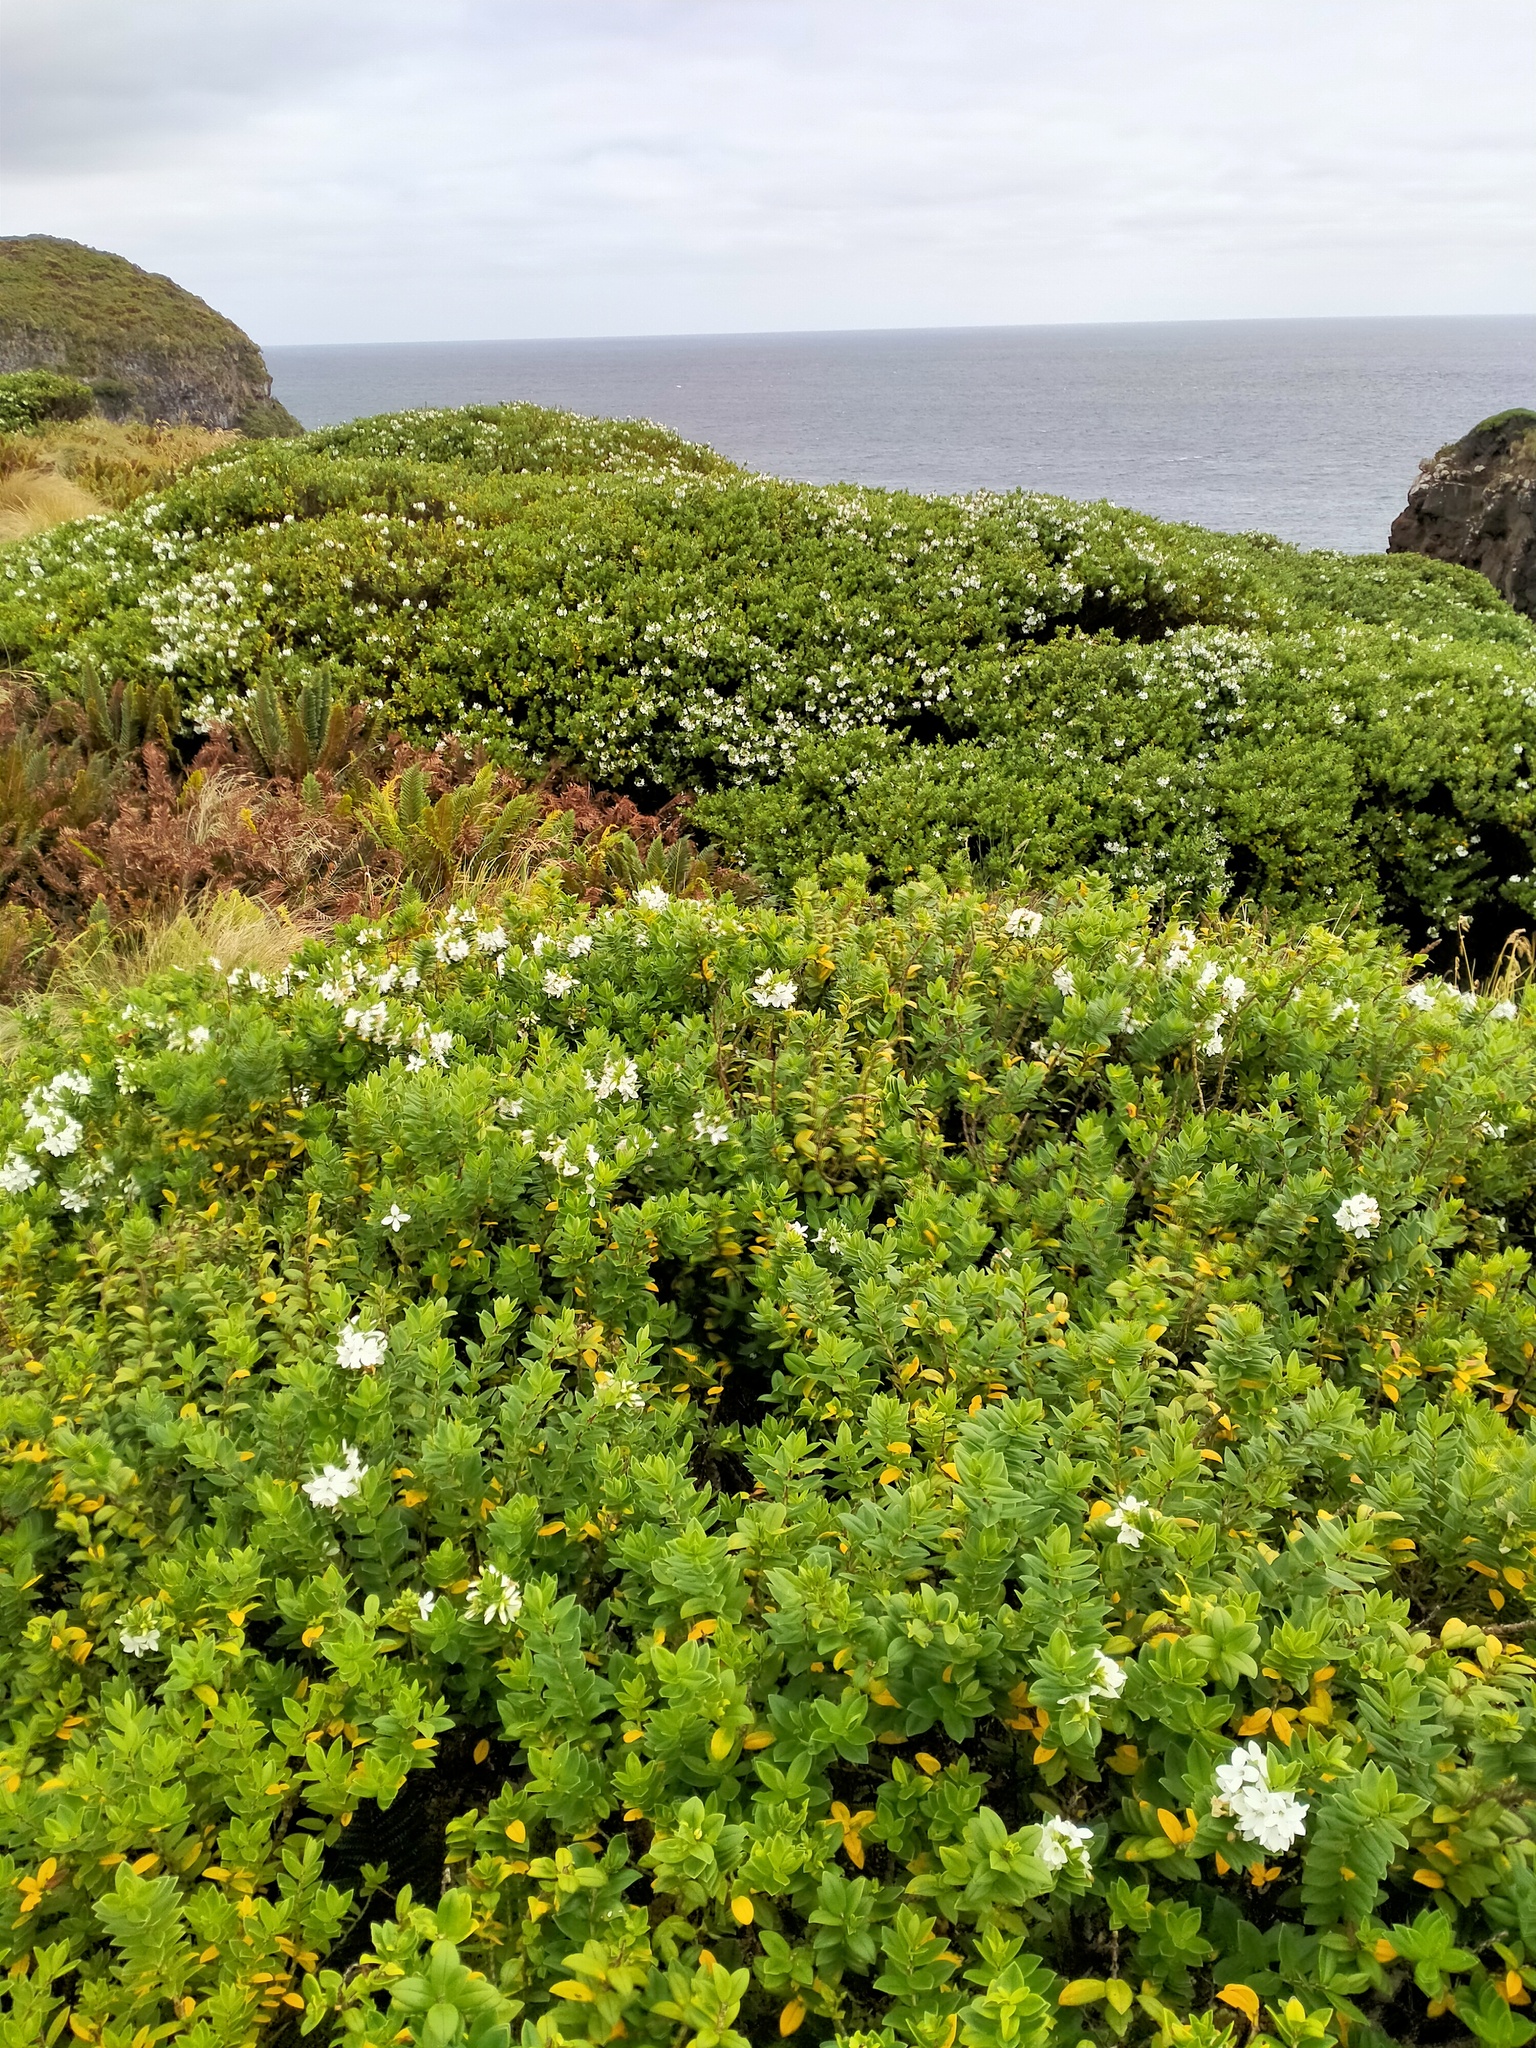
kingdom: Plantae
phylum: Tracheophyta
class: Magnoliopsida
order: Lamiales
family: Plantaginaceae
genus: Veronica
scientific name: Veronica elliptica
